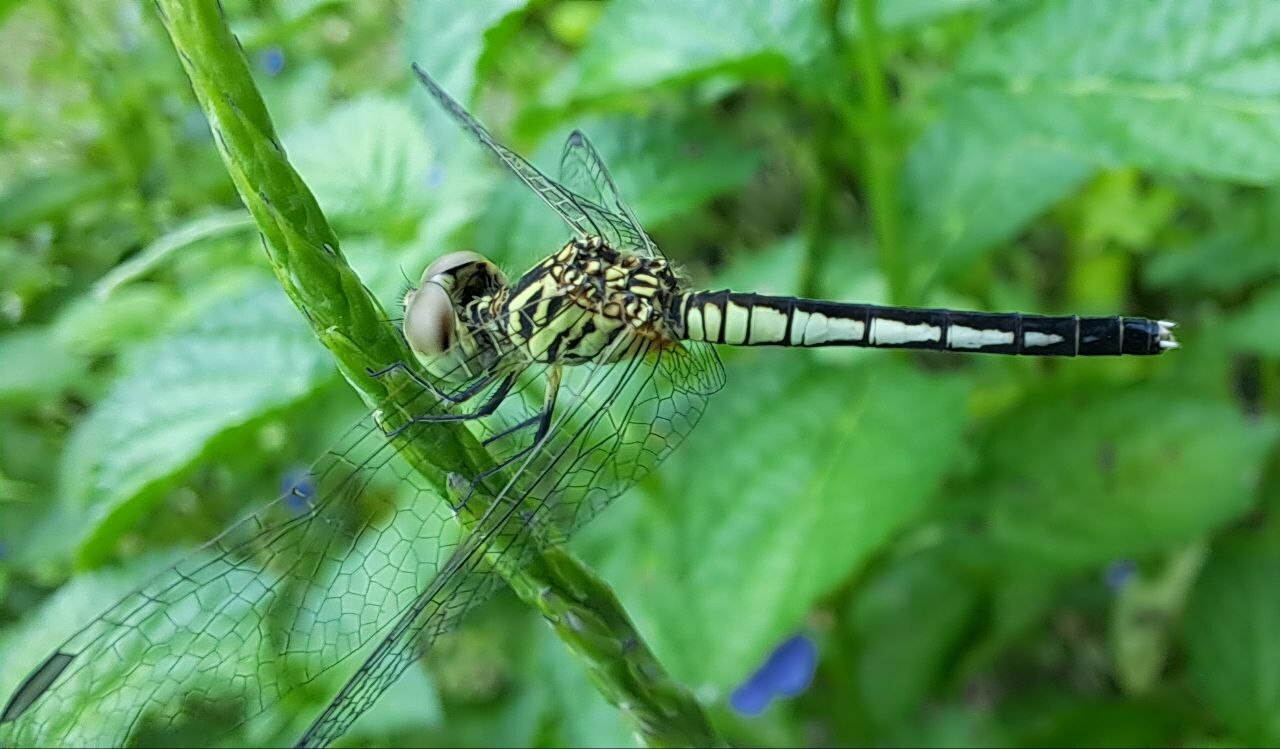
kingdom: Animalia
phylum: Arthropoda
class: Insecta
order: Odonata
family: Libellulidae
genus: Diplacodes
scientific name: Diplacodes nebulosa
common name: Black-tipped percher
